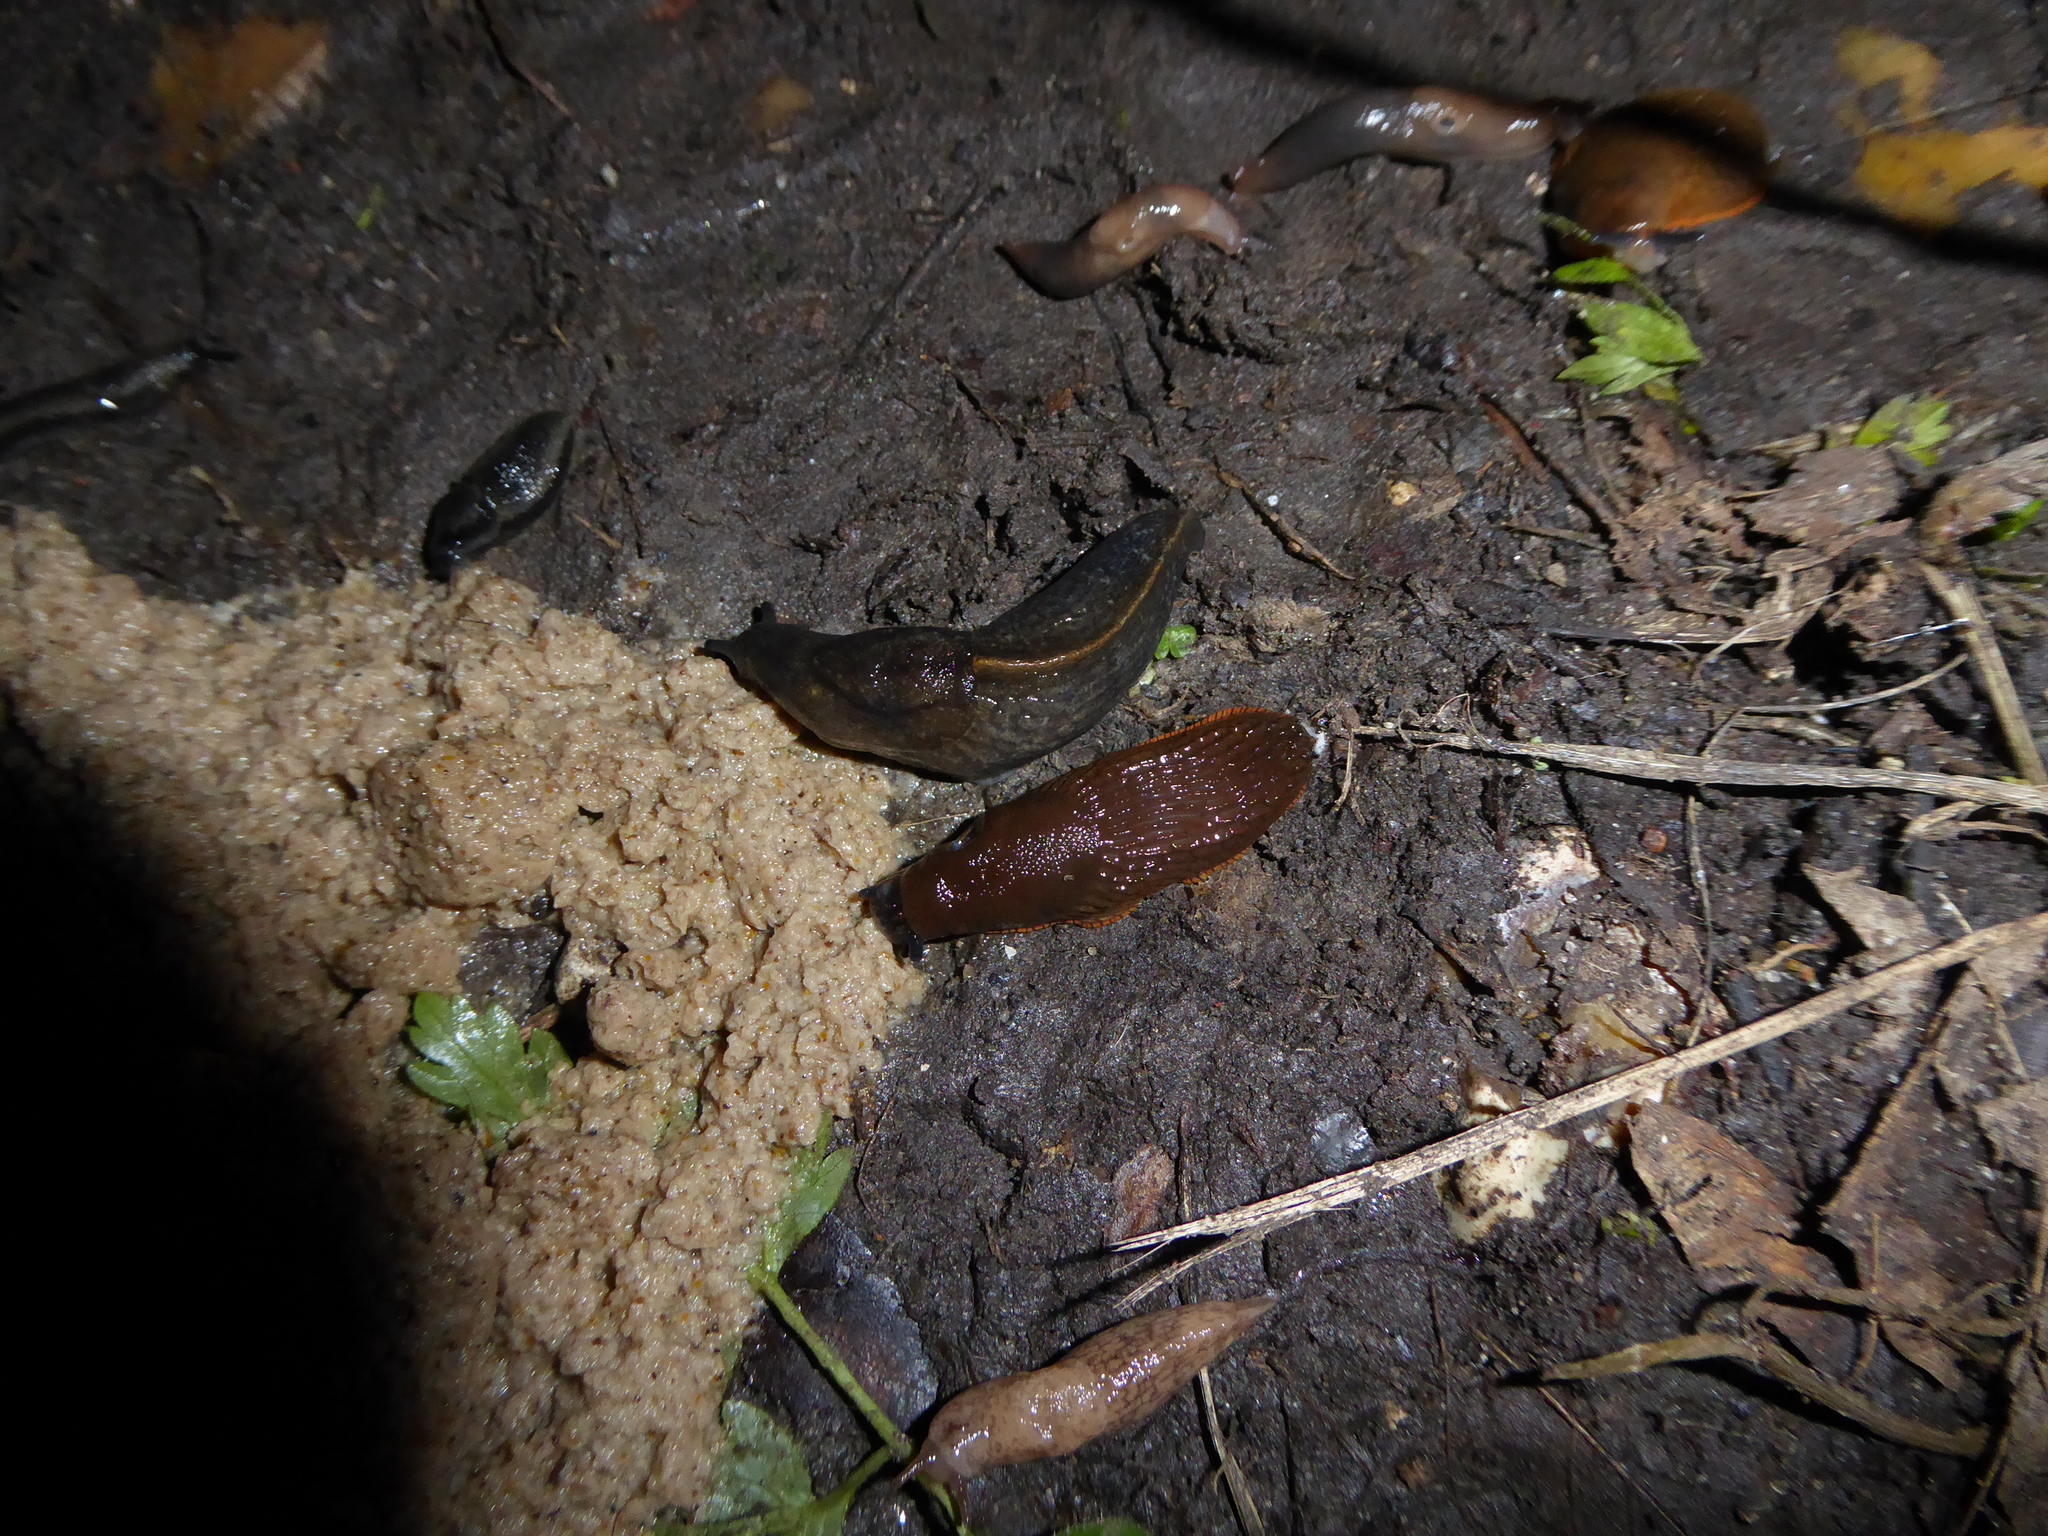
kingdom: Animalia
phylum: Mollusca
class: Gastropoda
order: Stylommatophora
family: Arionidae
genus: Arion
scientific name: Arion
